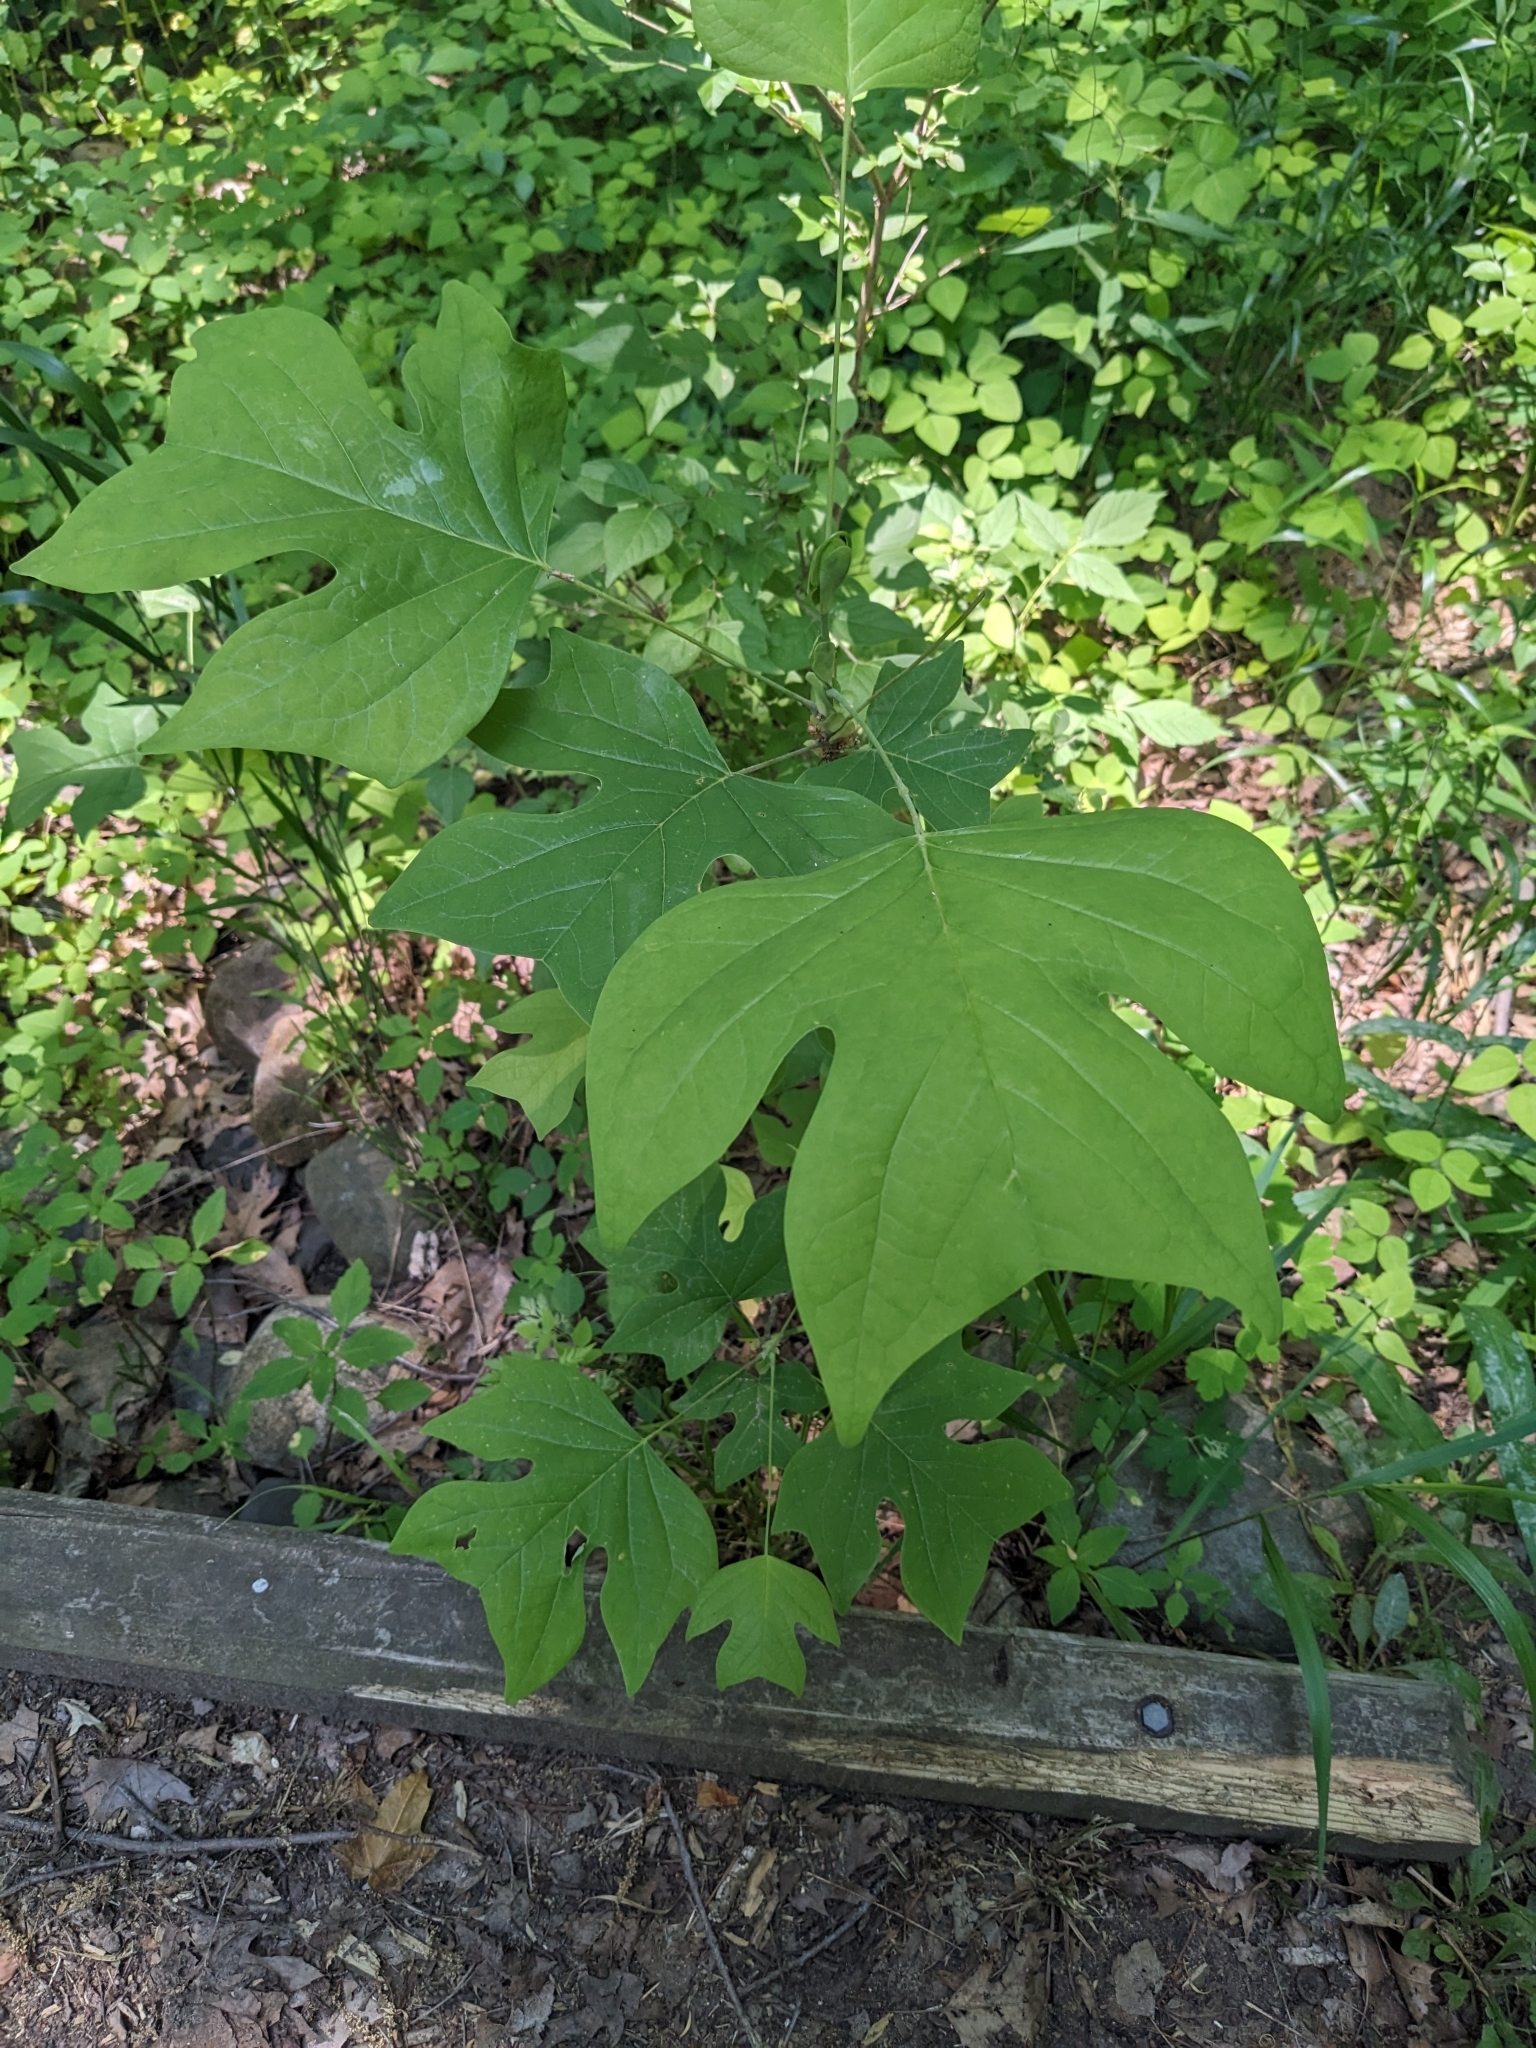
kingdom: Plantae
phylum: Tracheophyta
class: Magnoliopsida
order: Magnoliales
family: Magnoliaceae
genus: Liriodendron
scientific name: Liriodendron tulipifera
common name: Tulip tree
